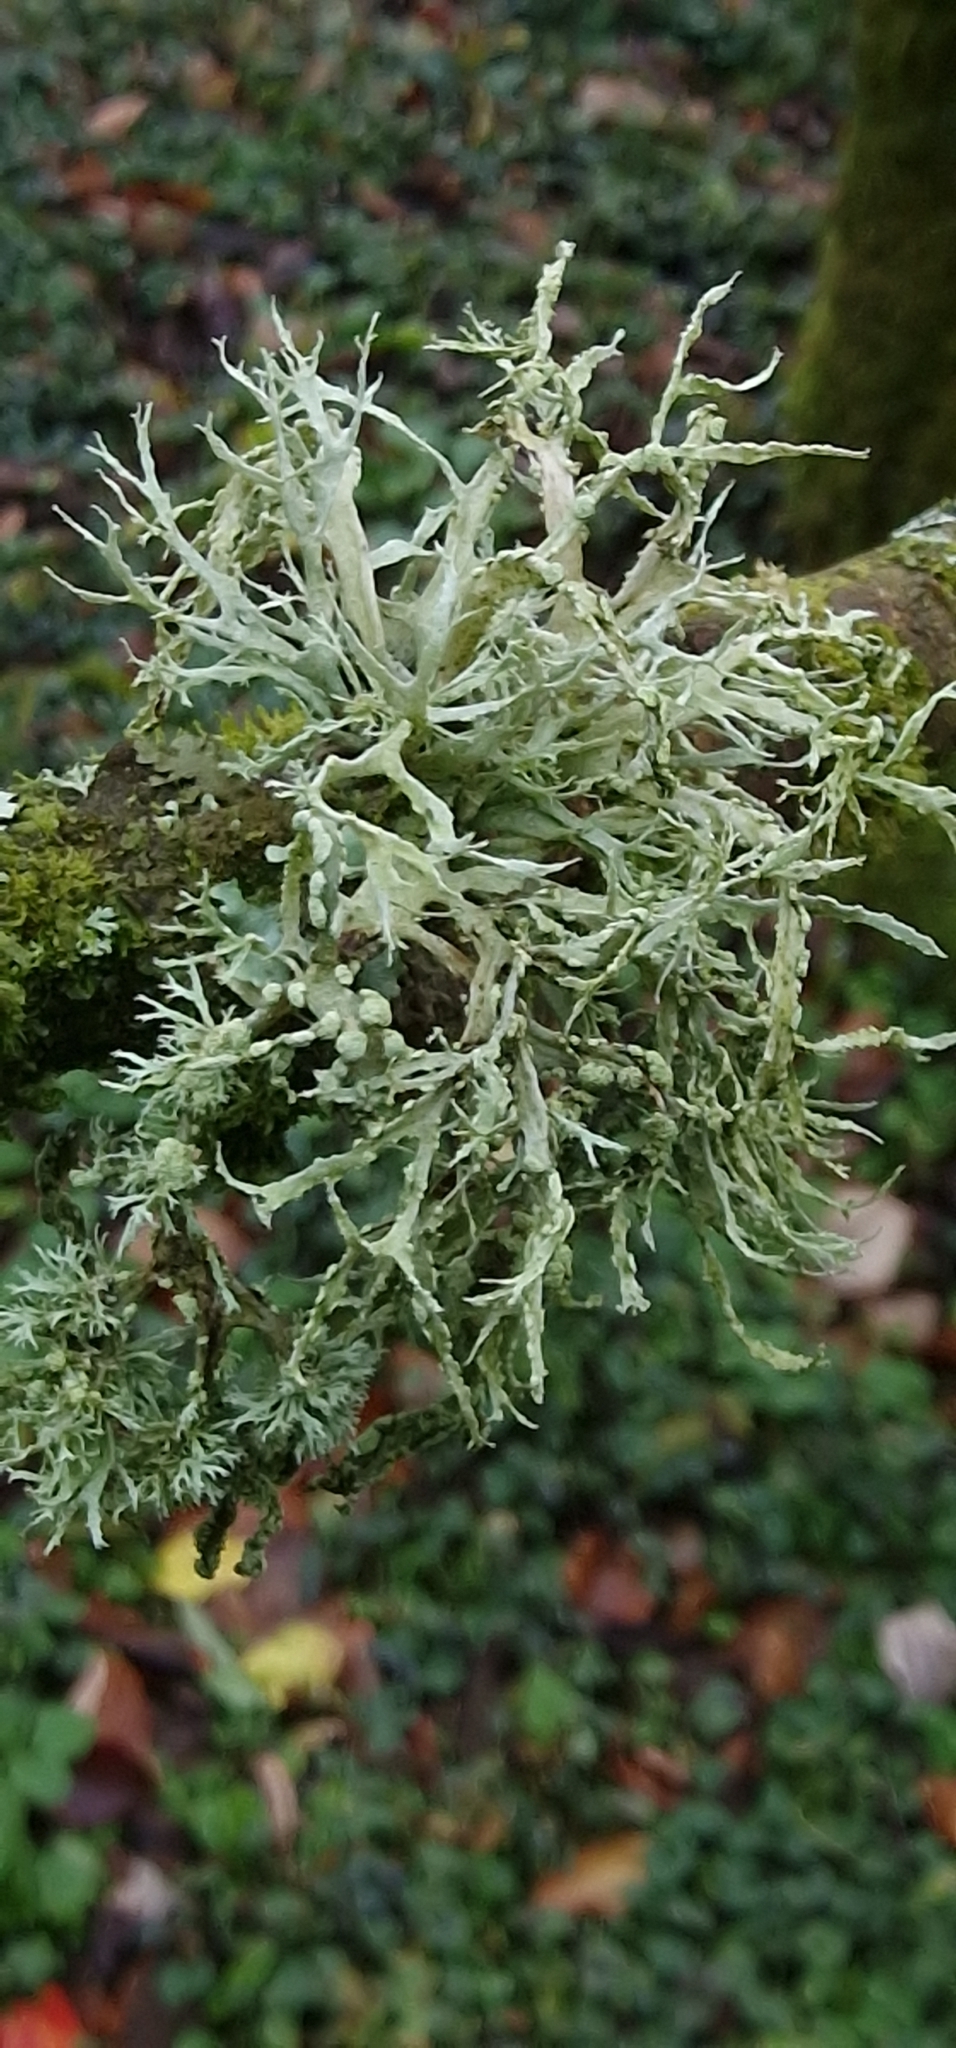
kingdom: Fungi
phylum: Ascomycota
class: Lecanoromycetes
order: Lecanorales
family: Ramalinaceae
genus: Ramalina
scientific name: Ramalina farinacea
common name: Farinose cartilage lichen
